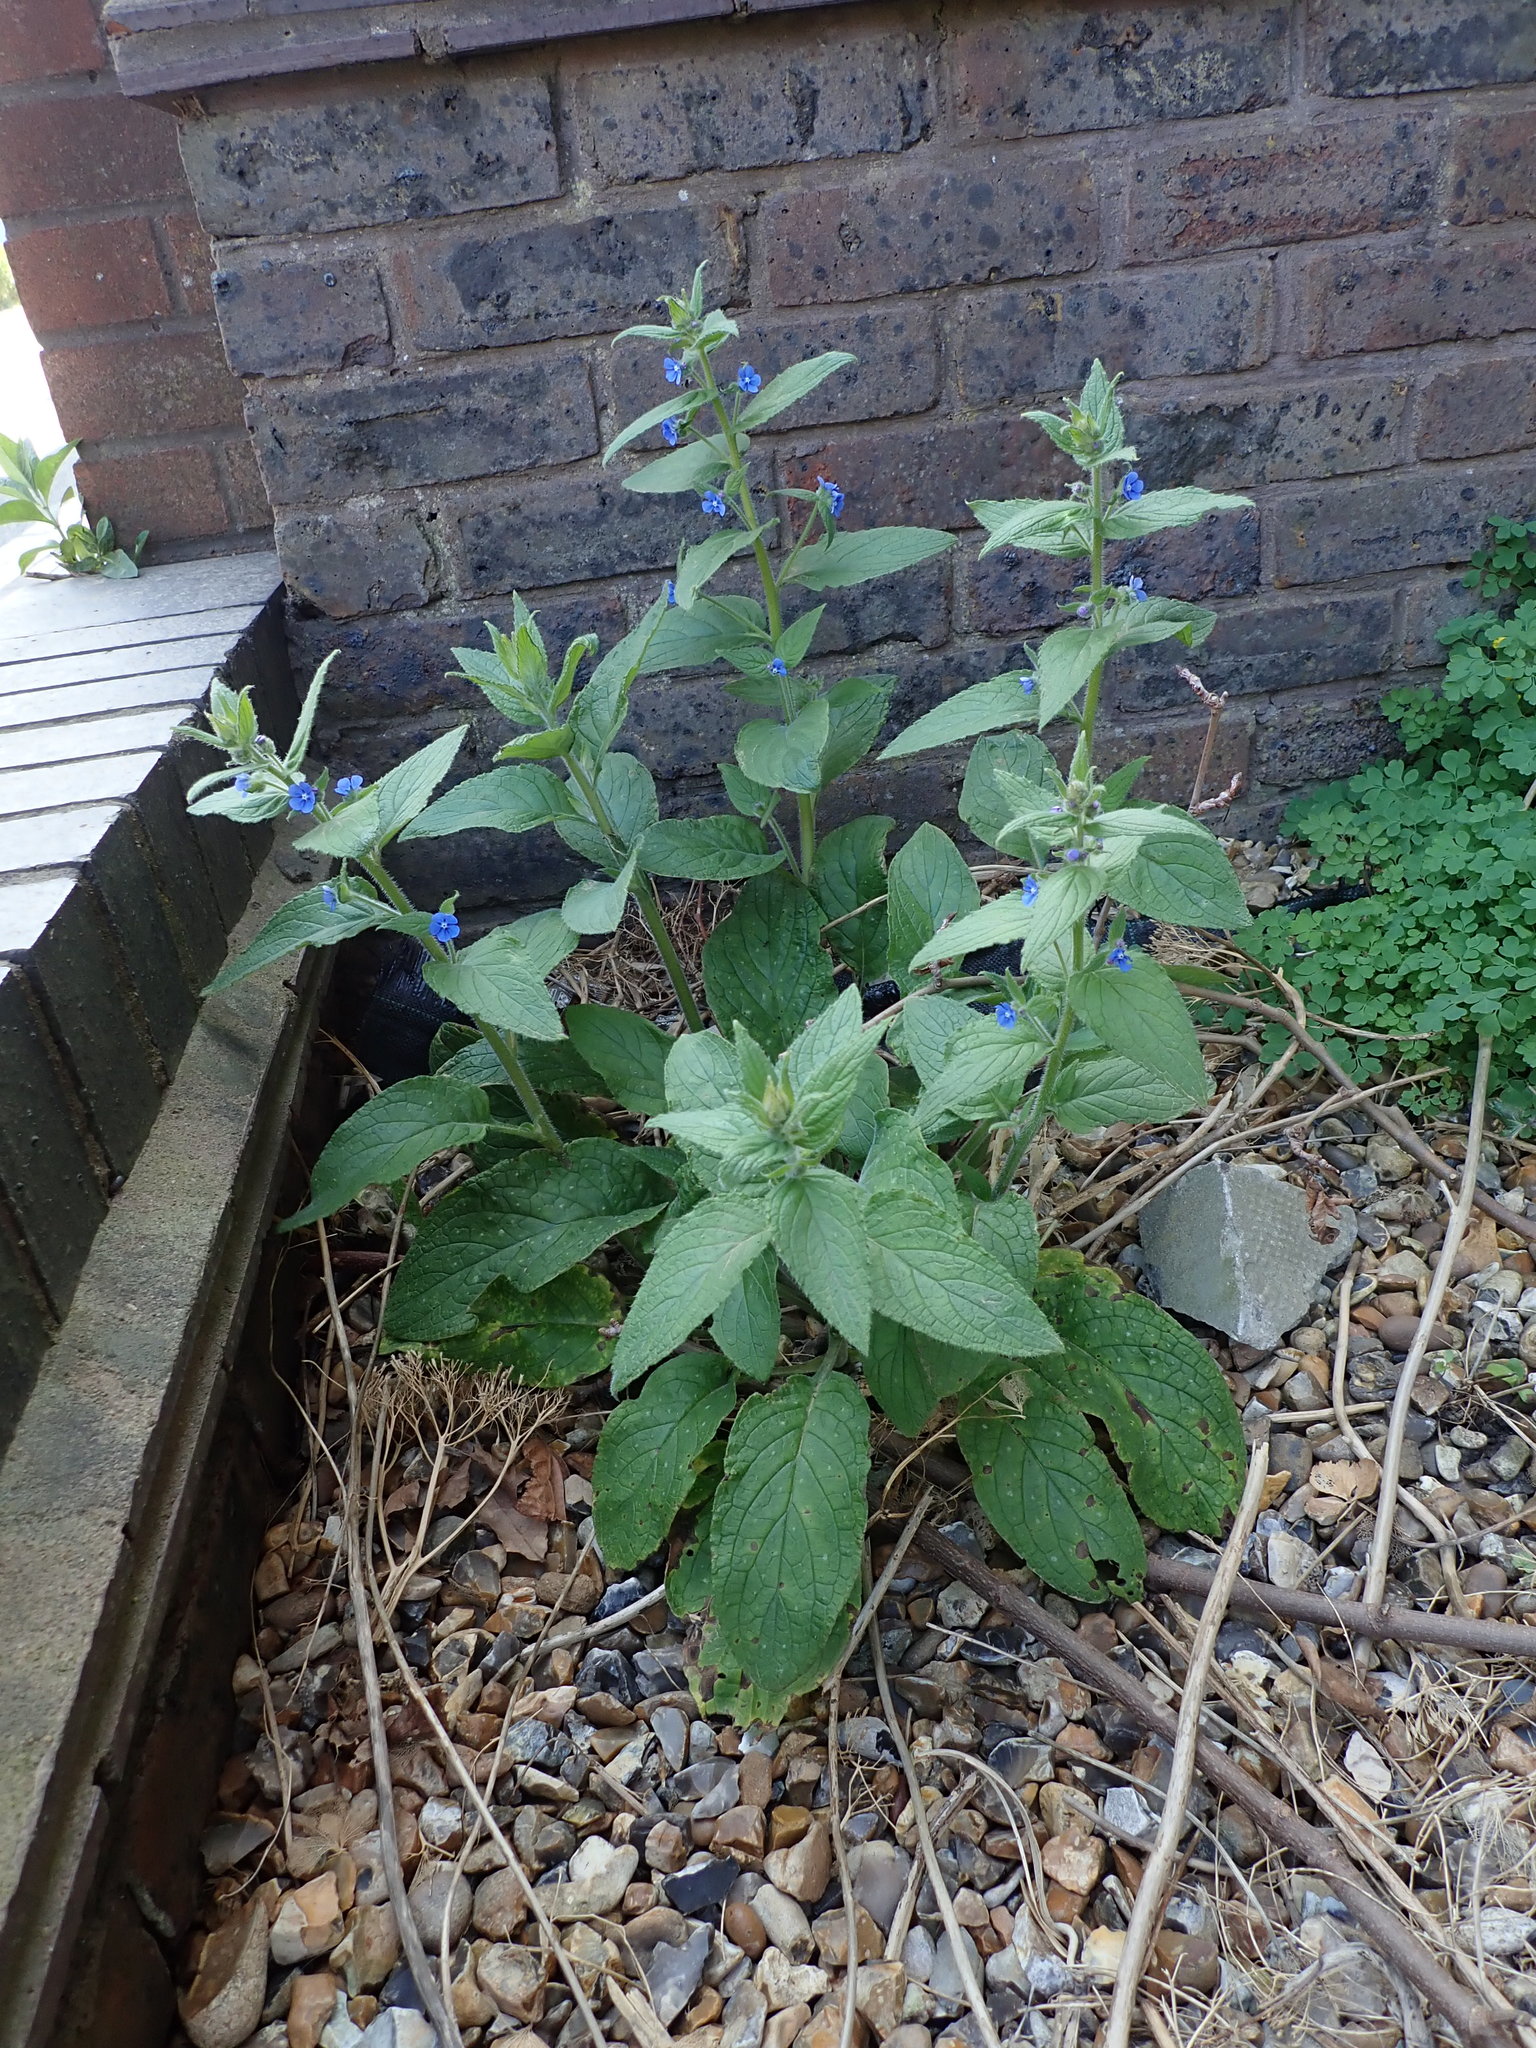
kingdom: Plantae
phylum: Tracheophyta
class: Magnoliopsida
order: Boraginales
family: Boraginaceae
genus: Pentaglottis
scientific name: Pentaglottis sempervirens
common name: Green alkanet
